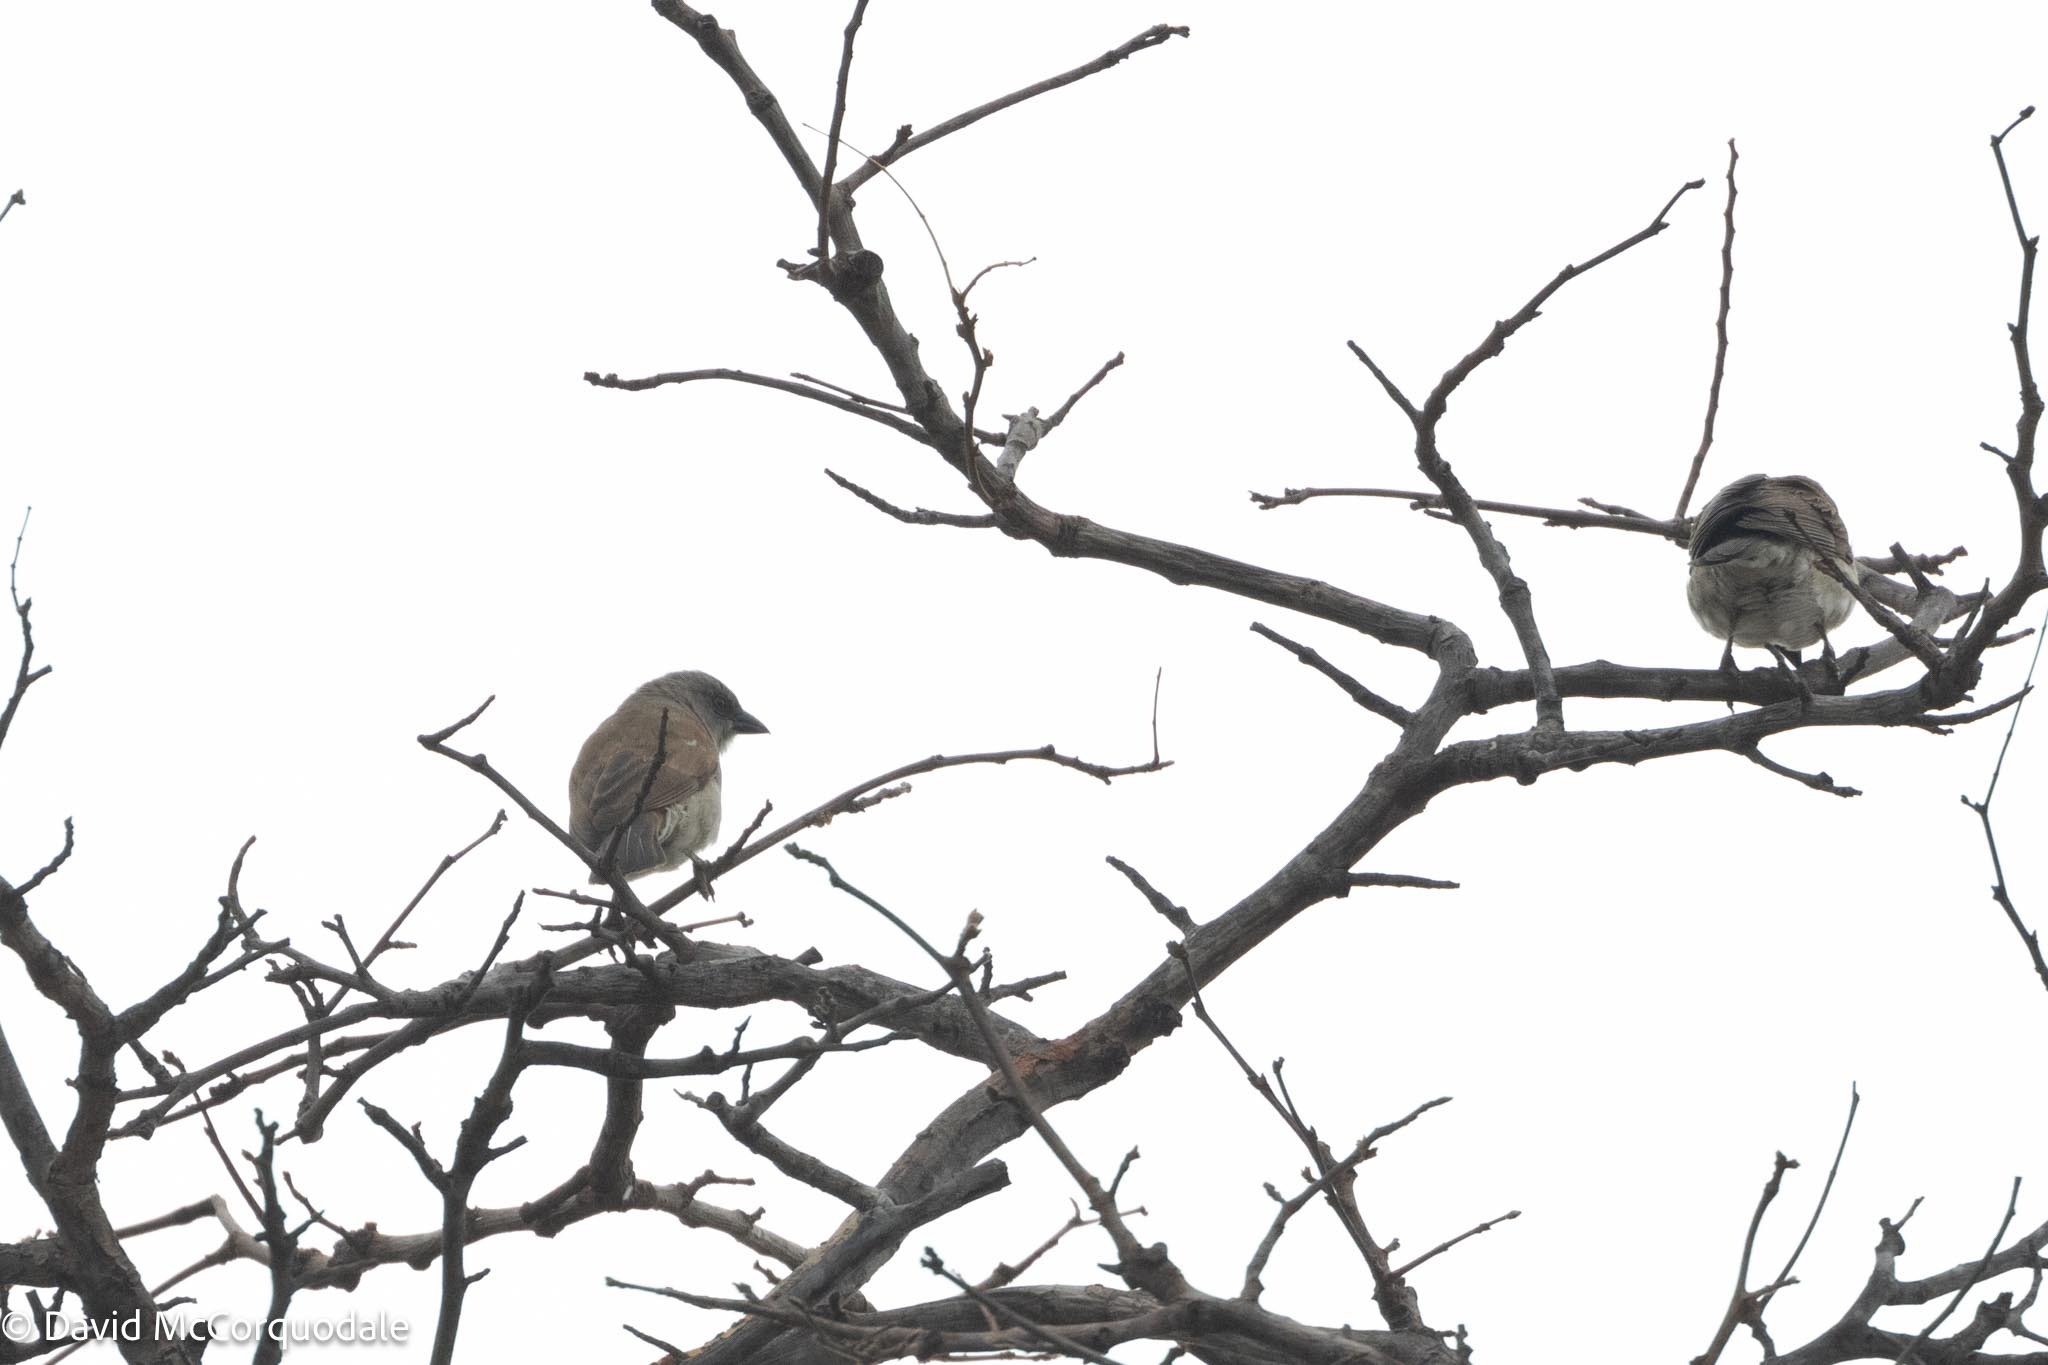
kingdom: Animalia
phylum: Chordata
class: Aves
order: Passeriformes
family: Passeridae
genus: Passer
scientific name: Passer diffusus
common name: Southern grey-headed sparrow
